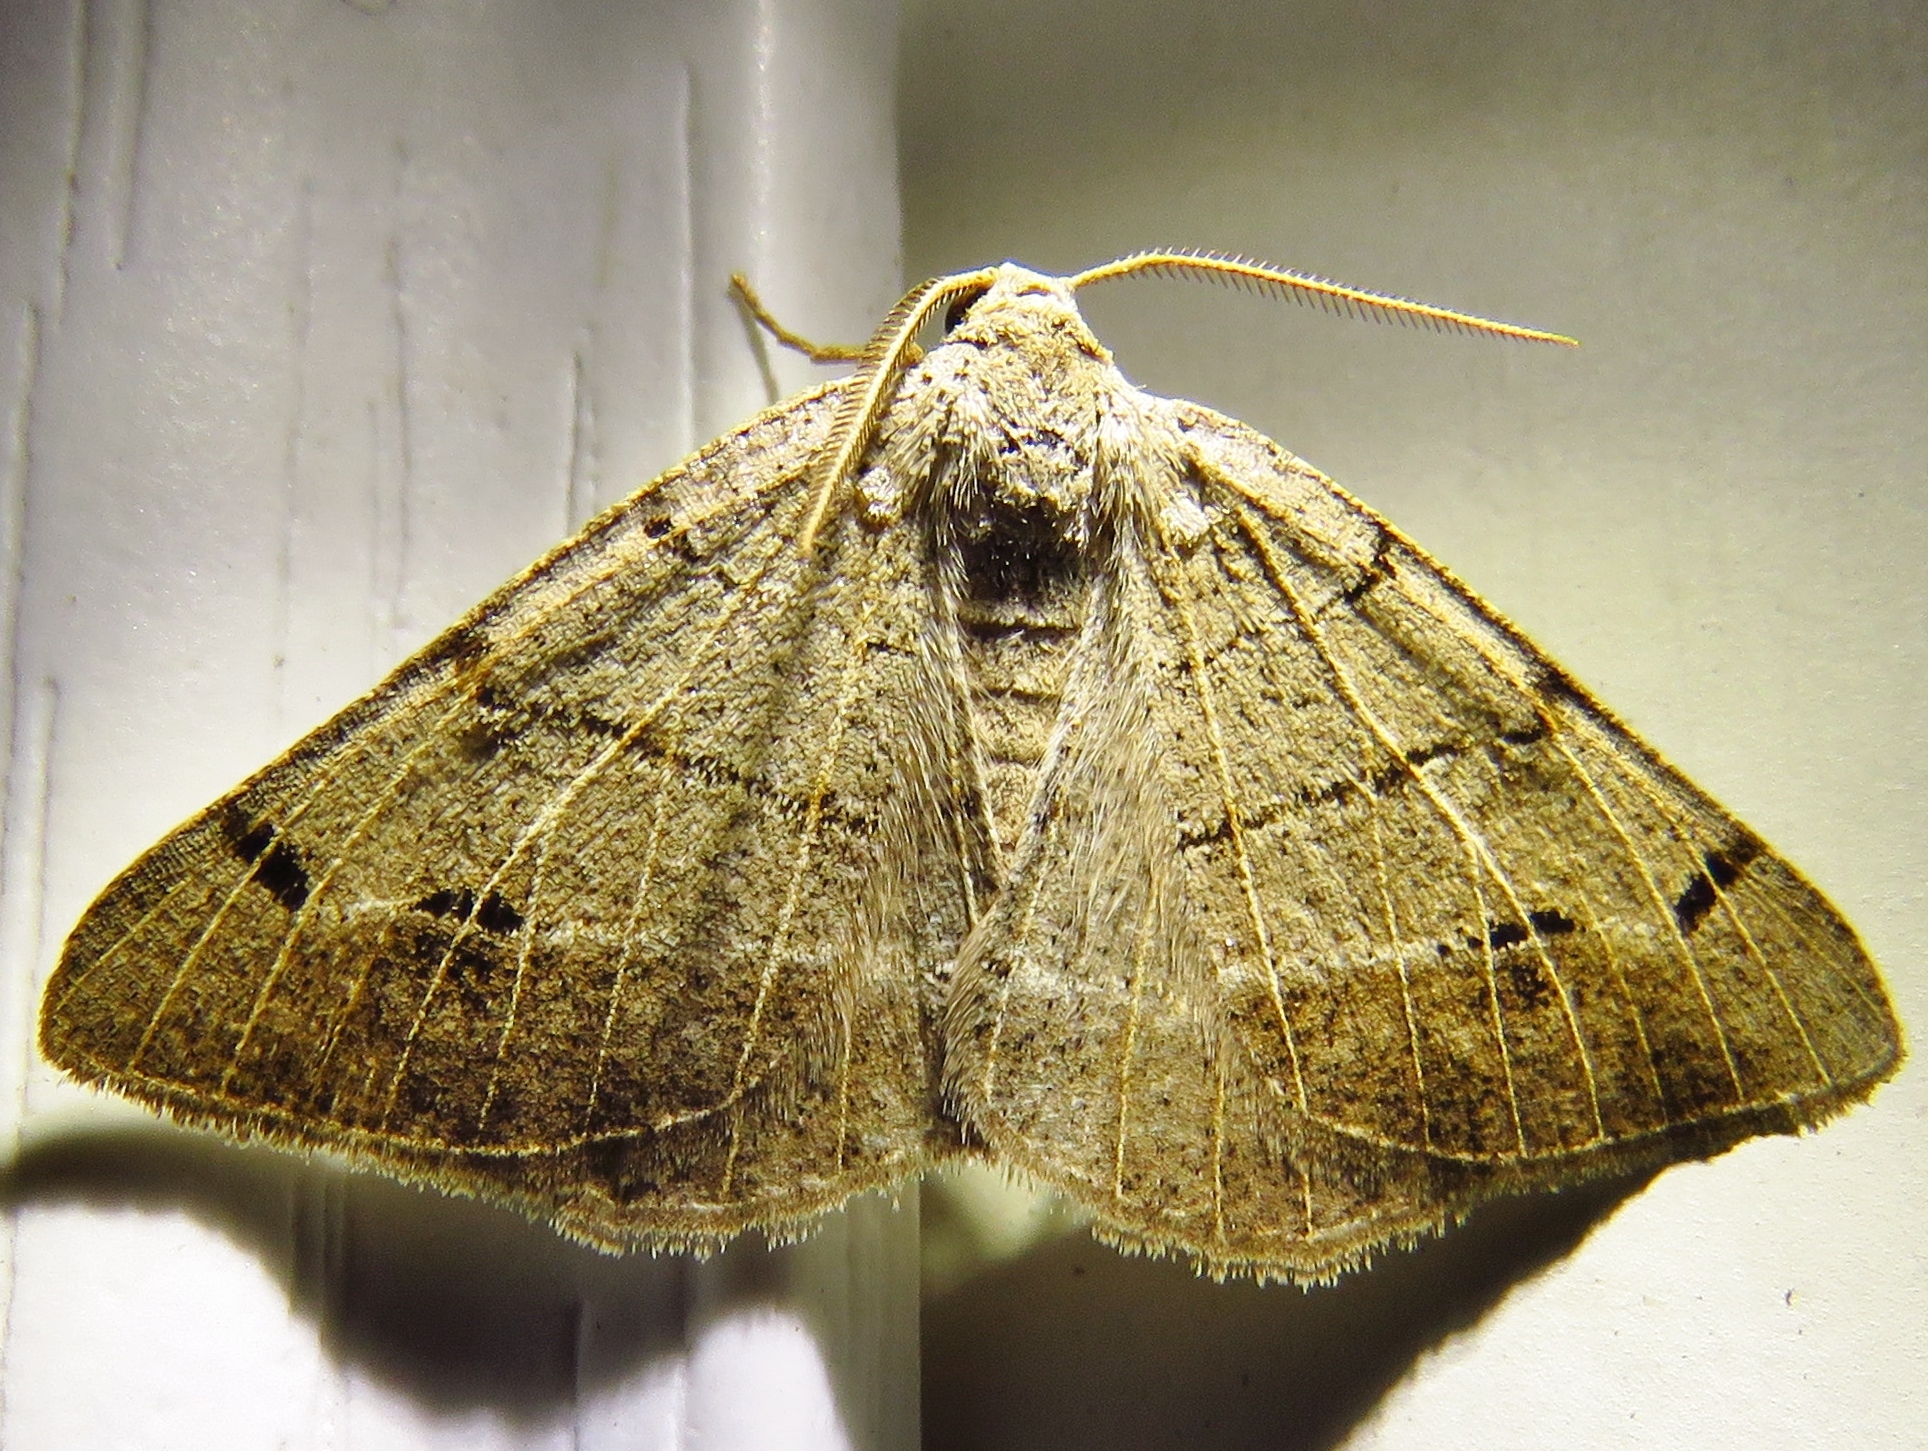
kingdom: Animalia
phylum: Arthropoda
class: Insecta
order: Lepidoptera
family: Geometridae
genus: Isturgia
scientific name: Isturgia dislocaria
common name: Pale-viened enconista
